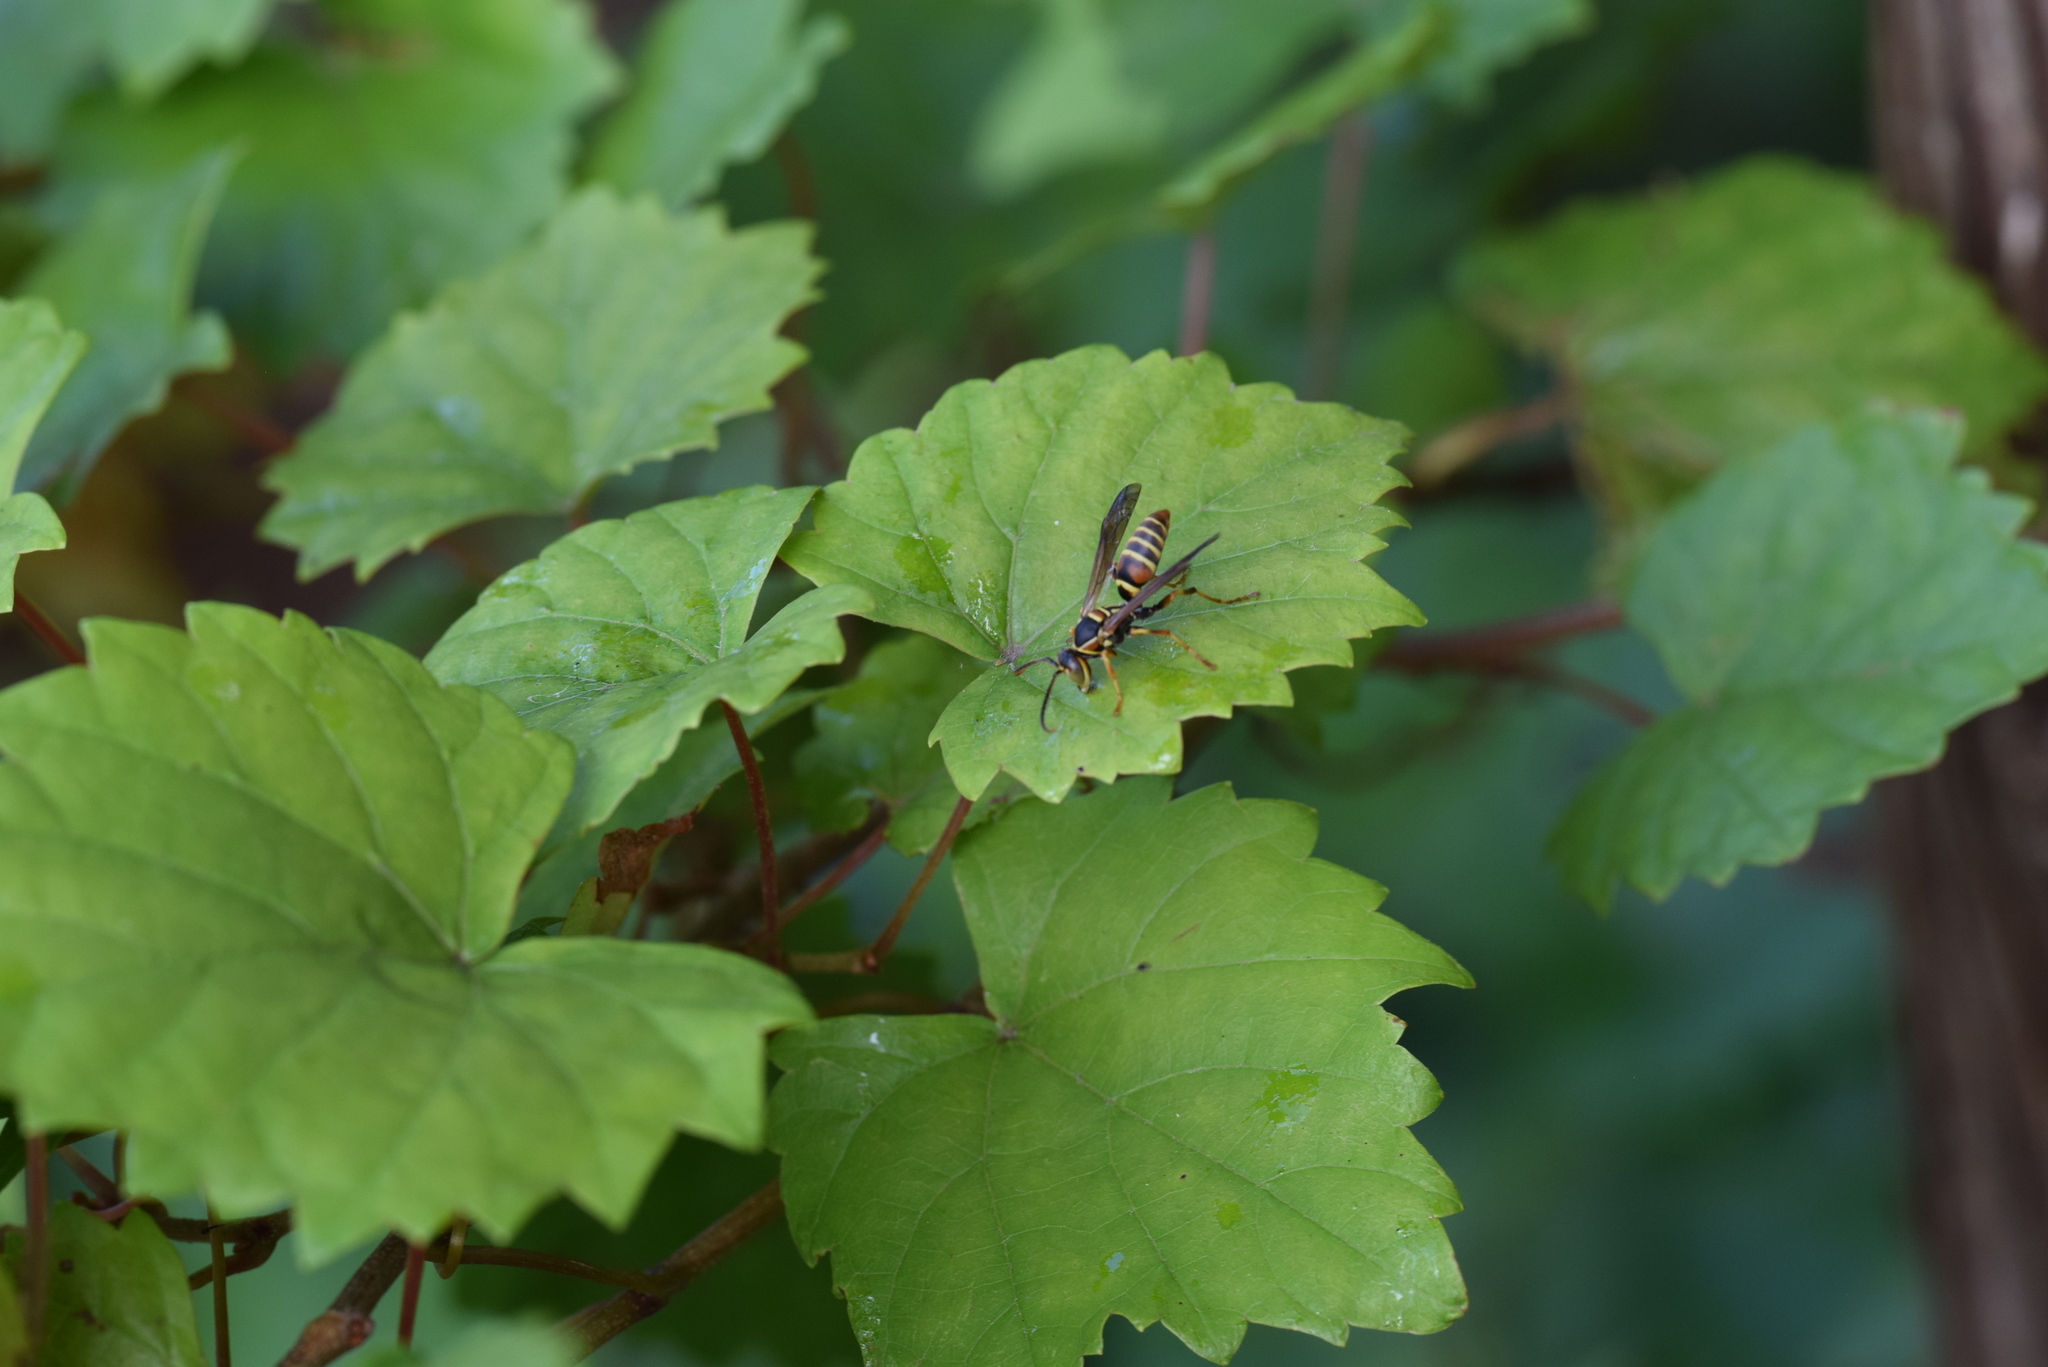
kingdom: Animalia
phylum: Arthropoda
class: Insecta
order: Hymenoptera
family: Eumenidae
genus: Polistes
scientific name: Polistes dorsalis
